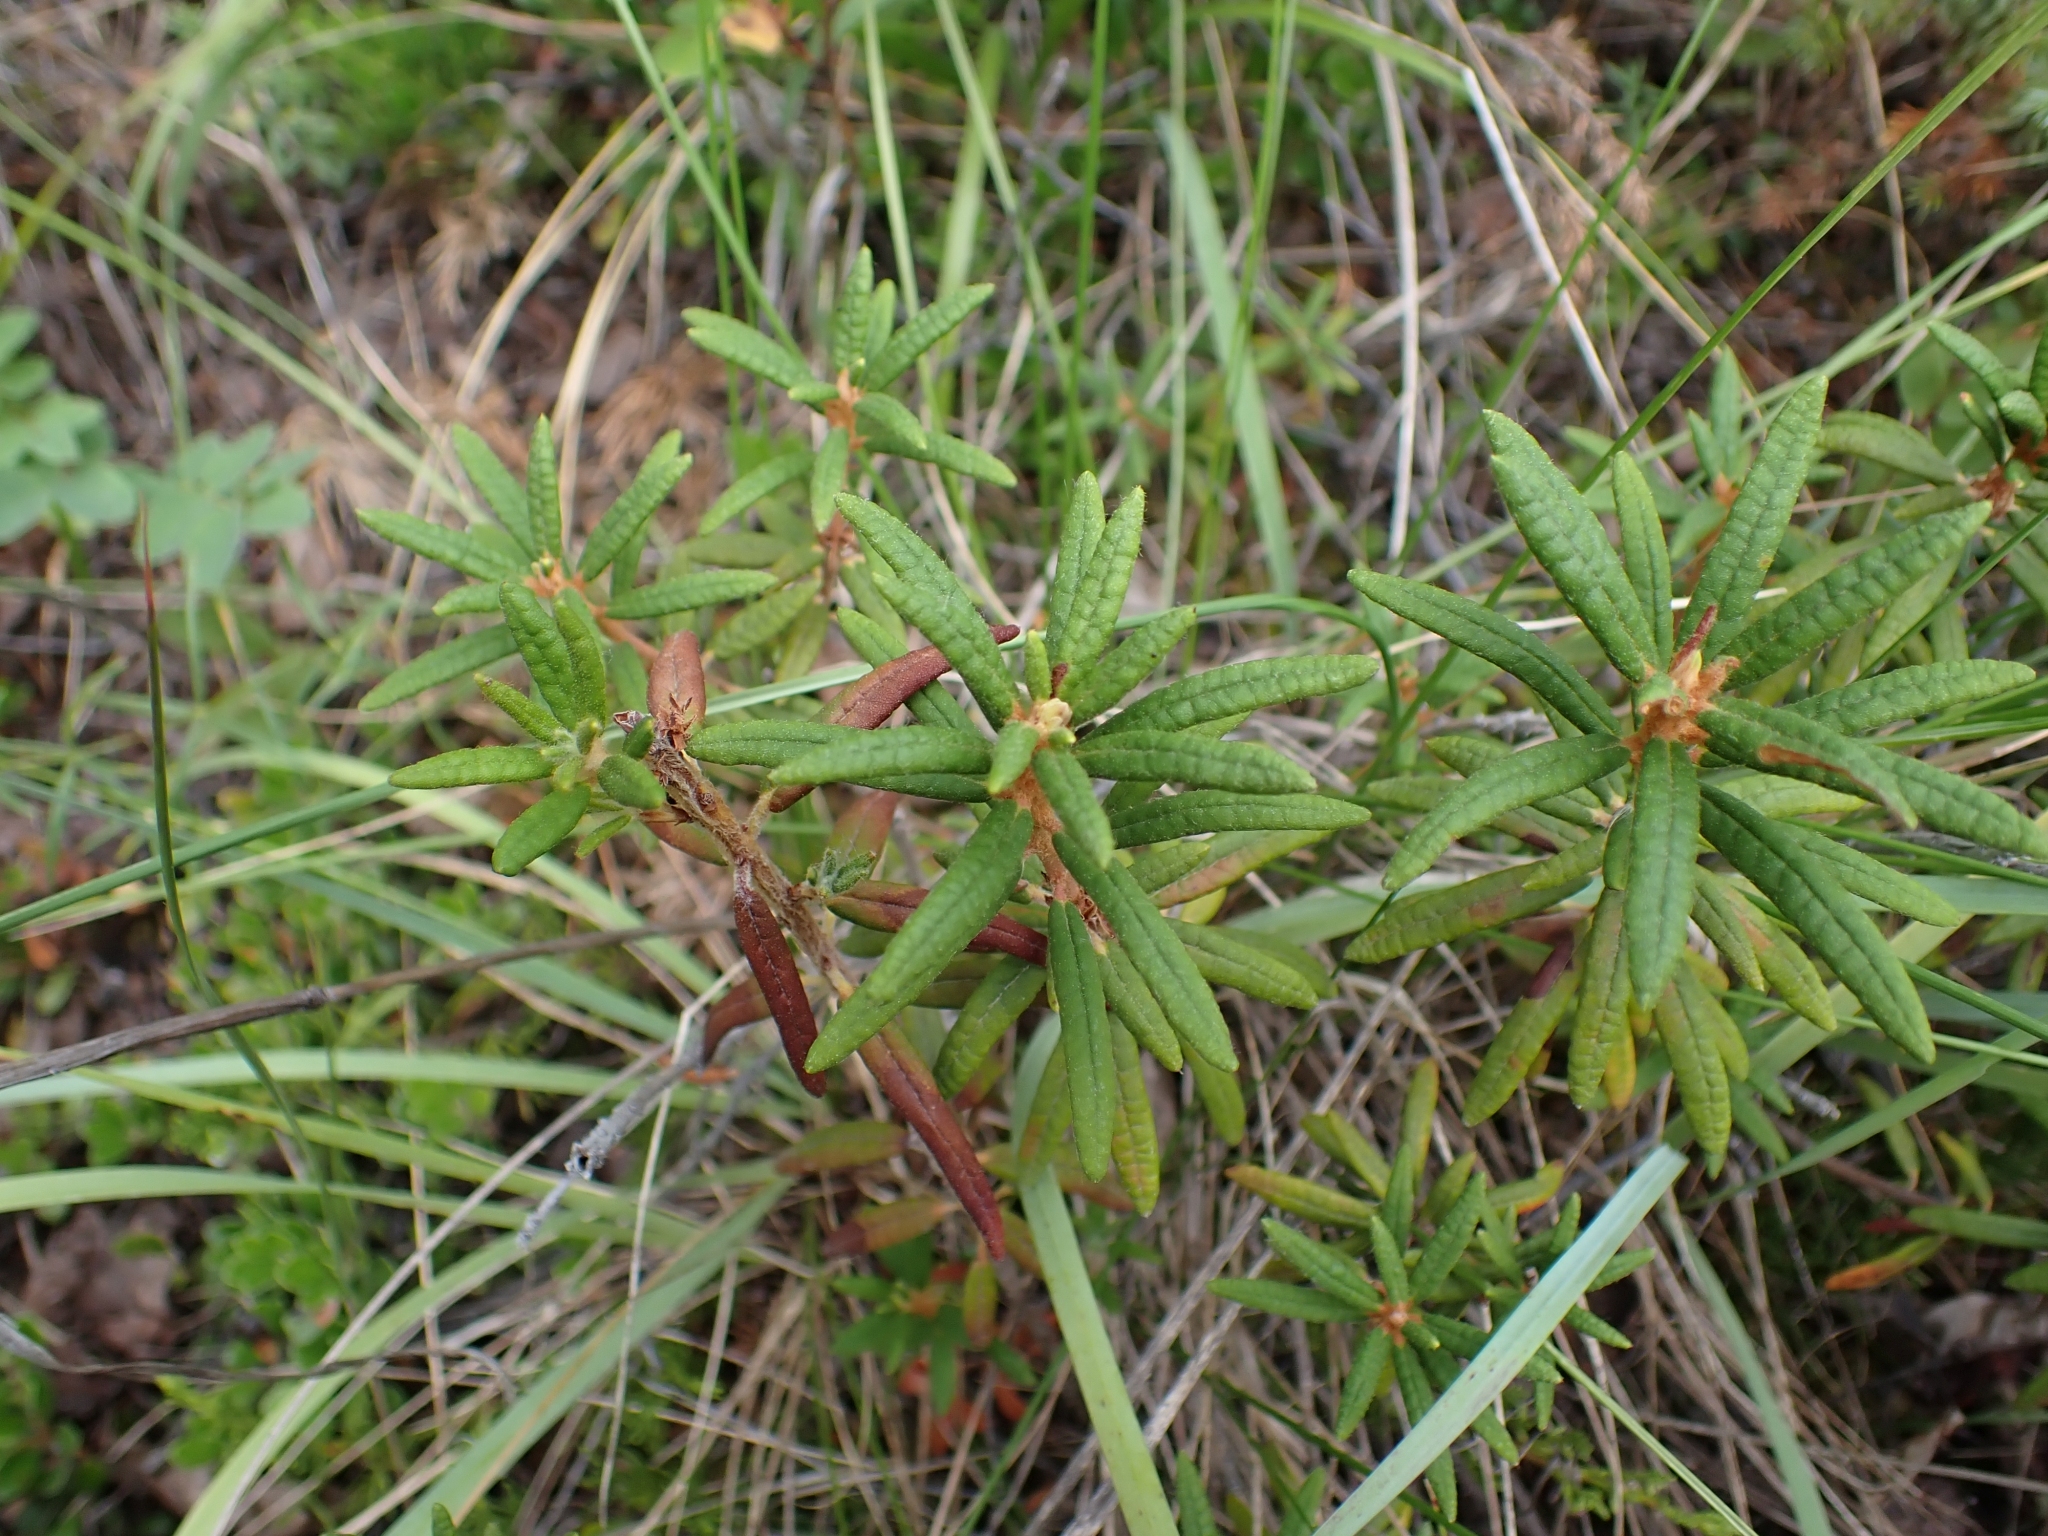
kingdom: Plantae
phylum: Tracheophyta
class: Magnoliopsida
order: Ericales
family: Ericaceae
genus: Rhododendron
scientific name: Rhododendron groenlandicum
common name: Bog labrador tea
